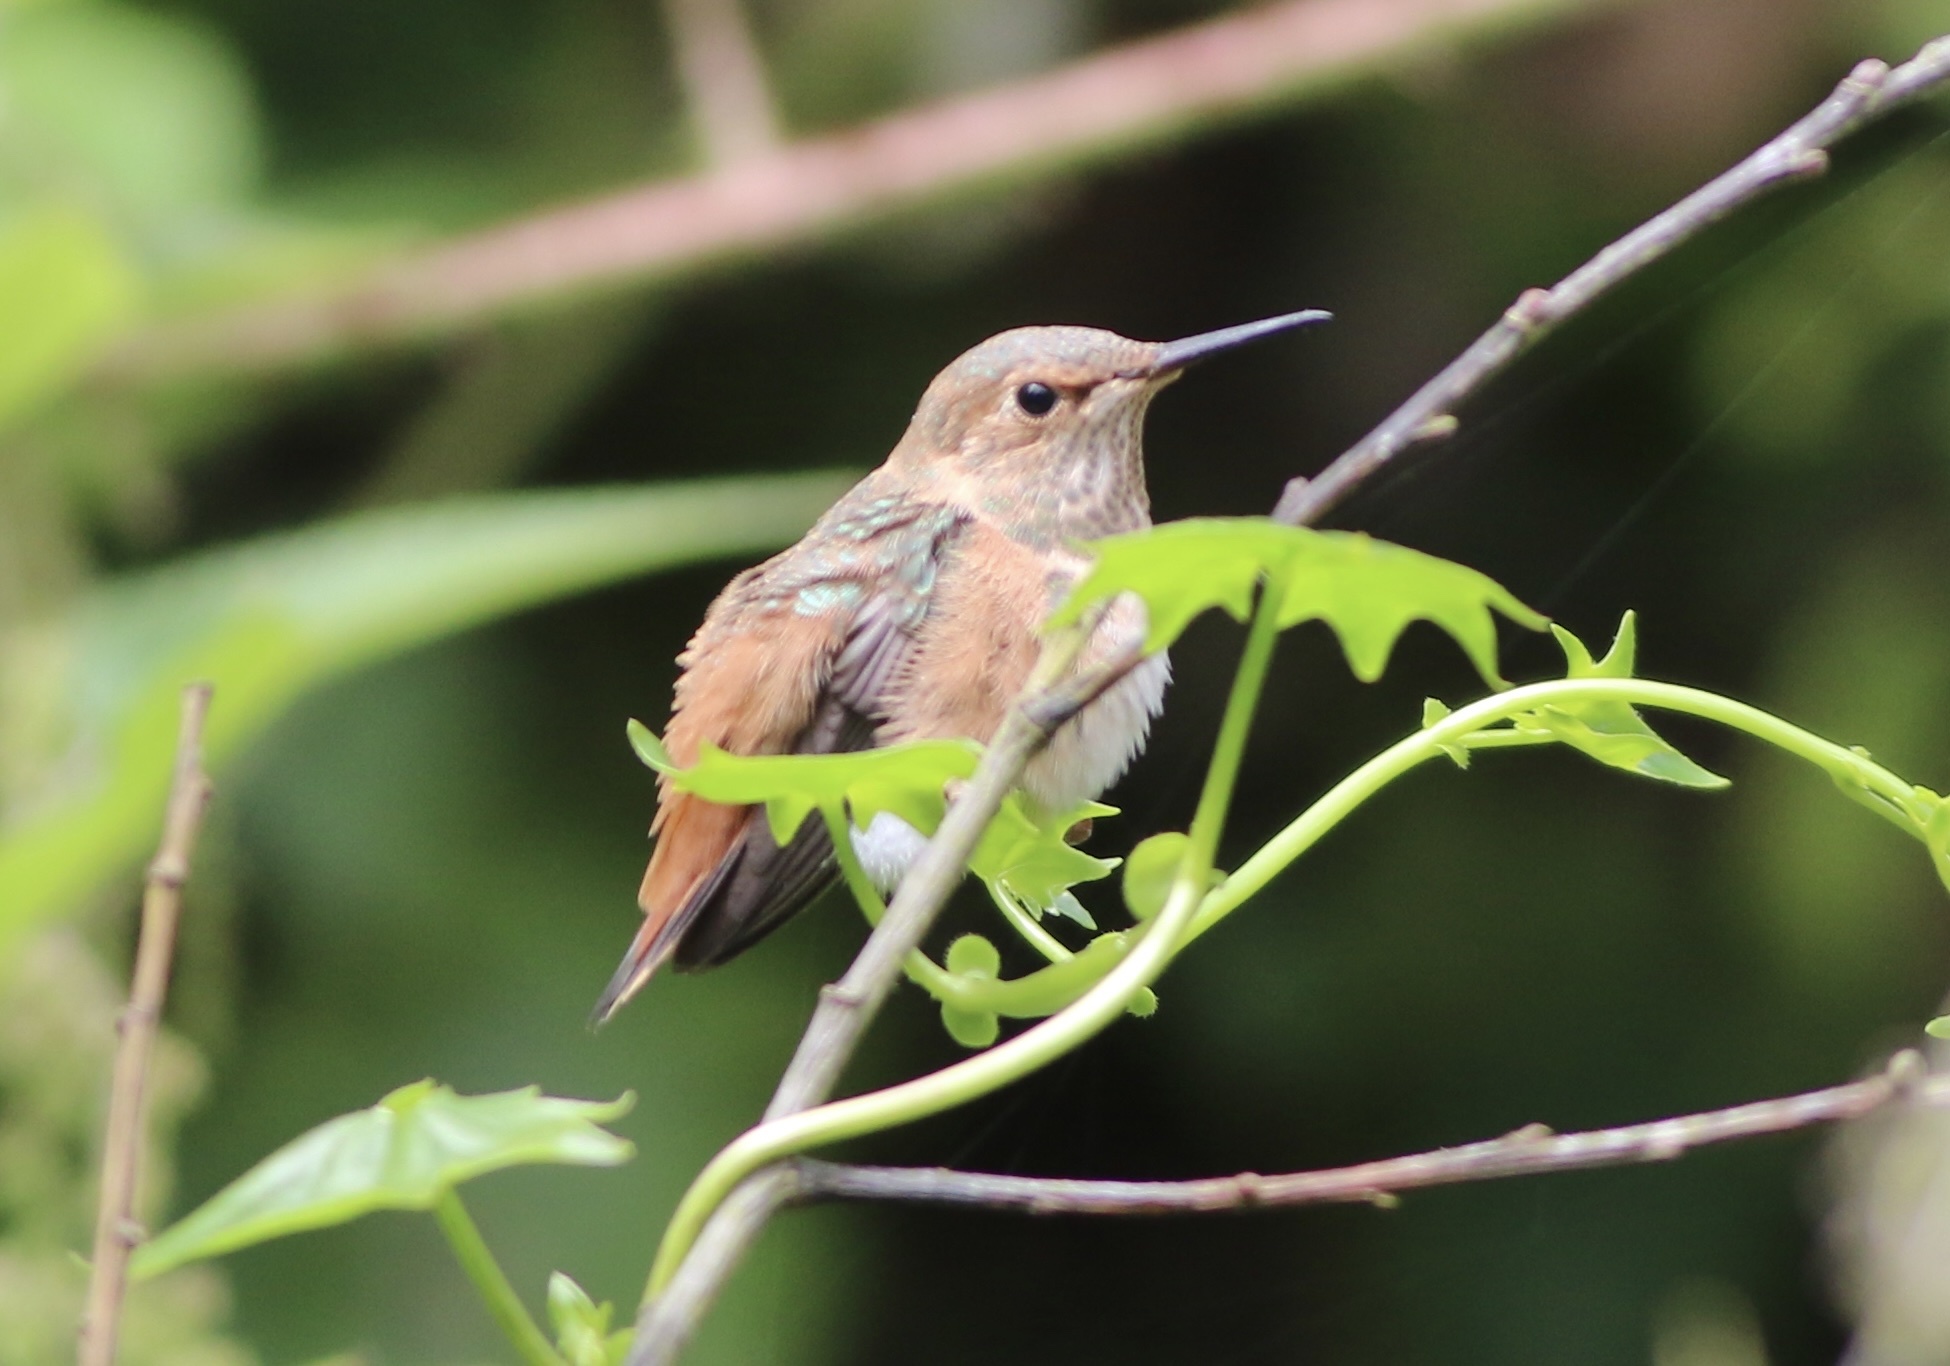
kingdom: Animalia
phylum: Chordata
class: Aves
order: Apodiformes
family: Trochilidae
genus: Selasphorus
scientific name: Selasphorus sasin
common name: Allen's hummingbird
